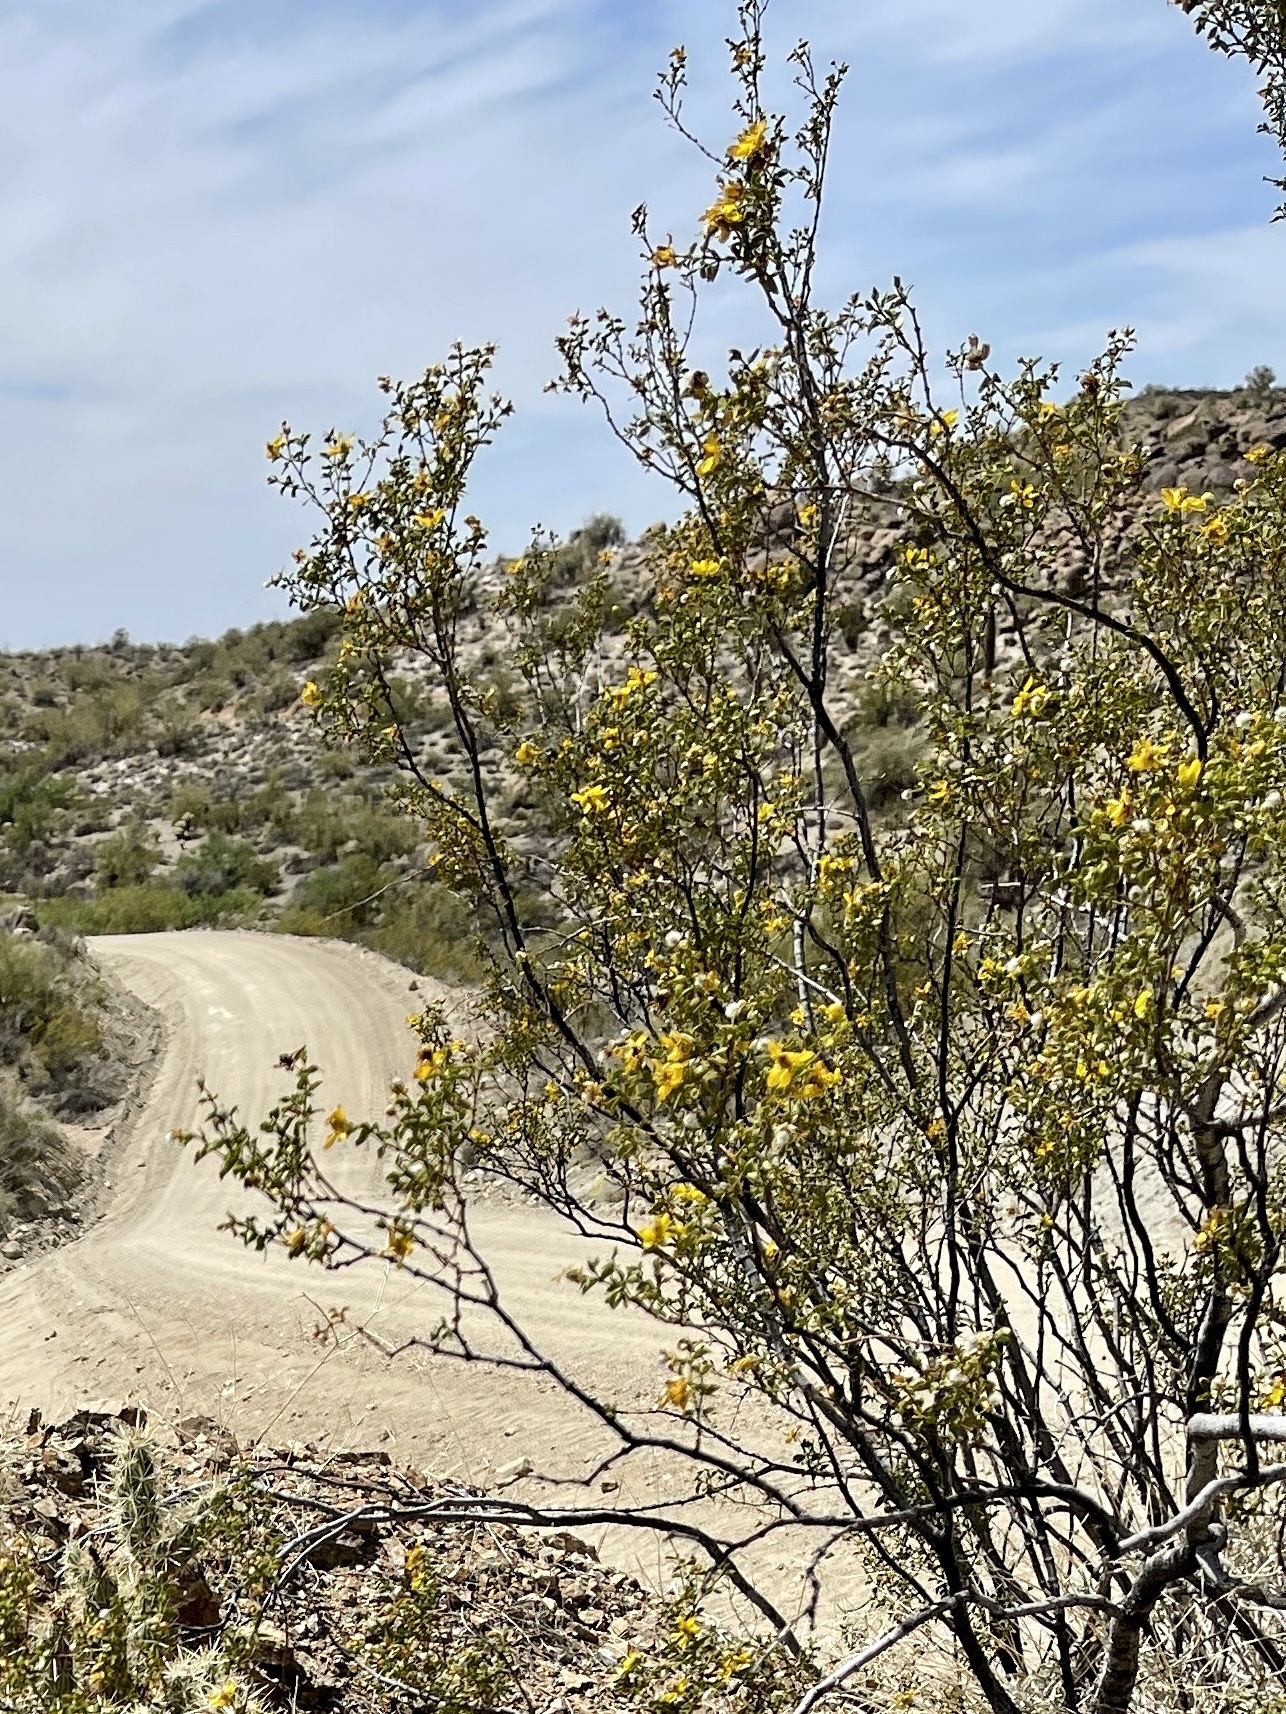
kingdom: Plantae
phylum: Tracheophyta
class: Magnoliopsida
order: Zygophyllales
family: Zygophyllaceae
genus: Larrea
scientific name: Larrea tridentata
